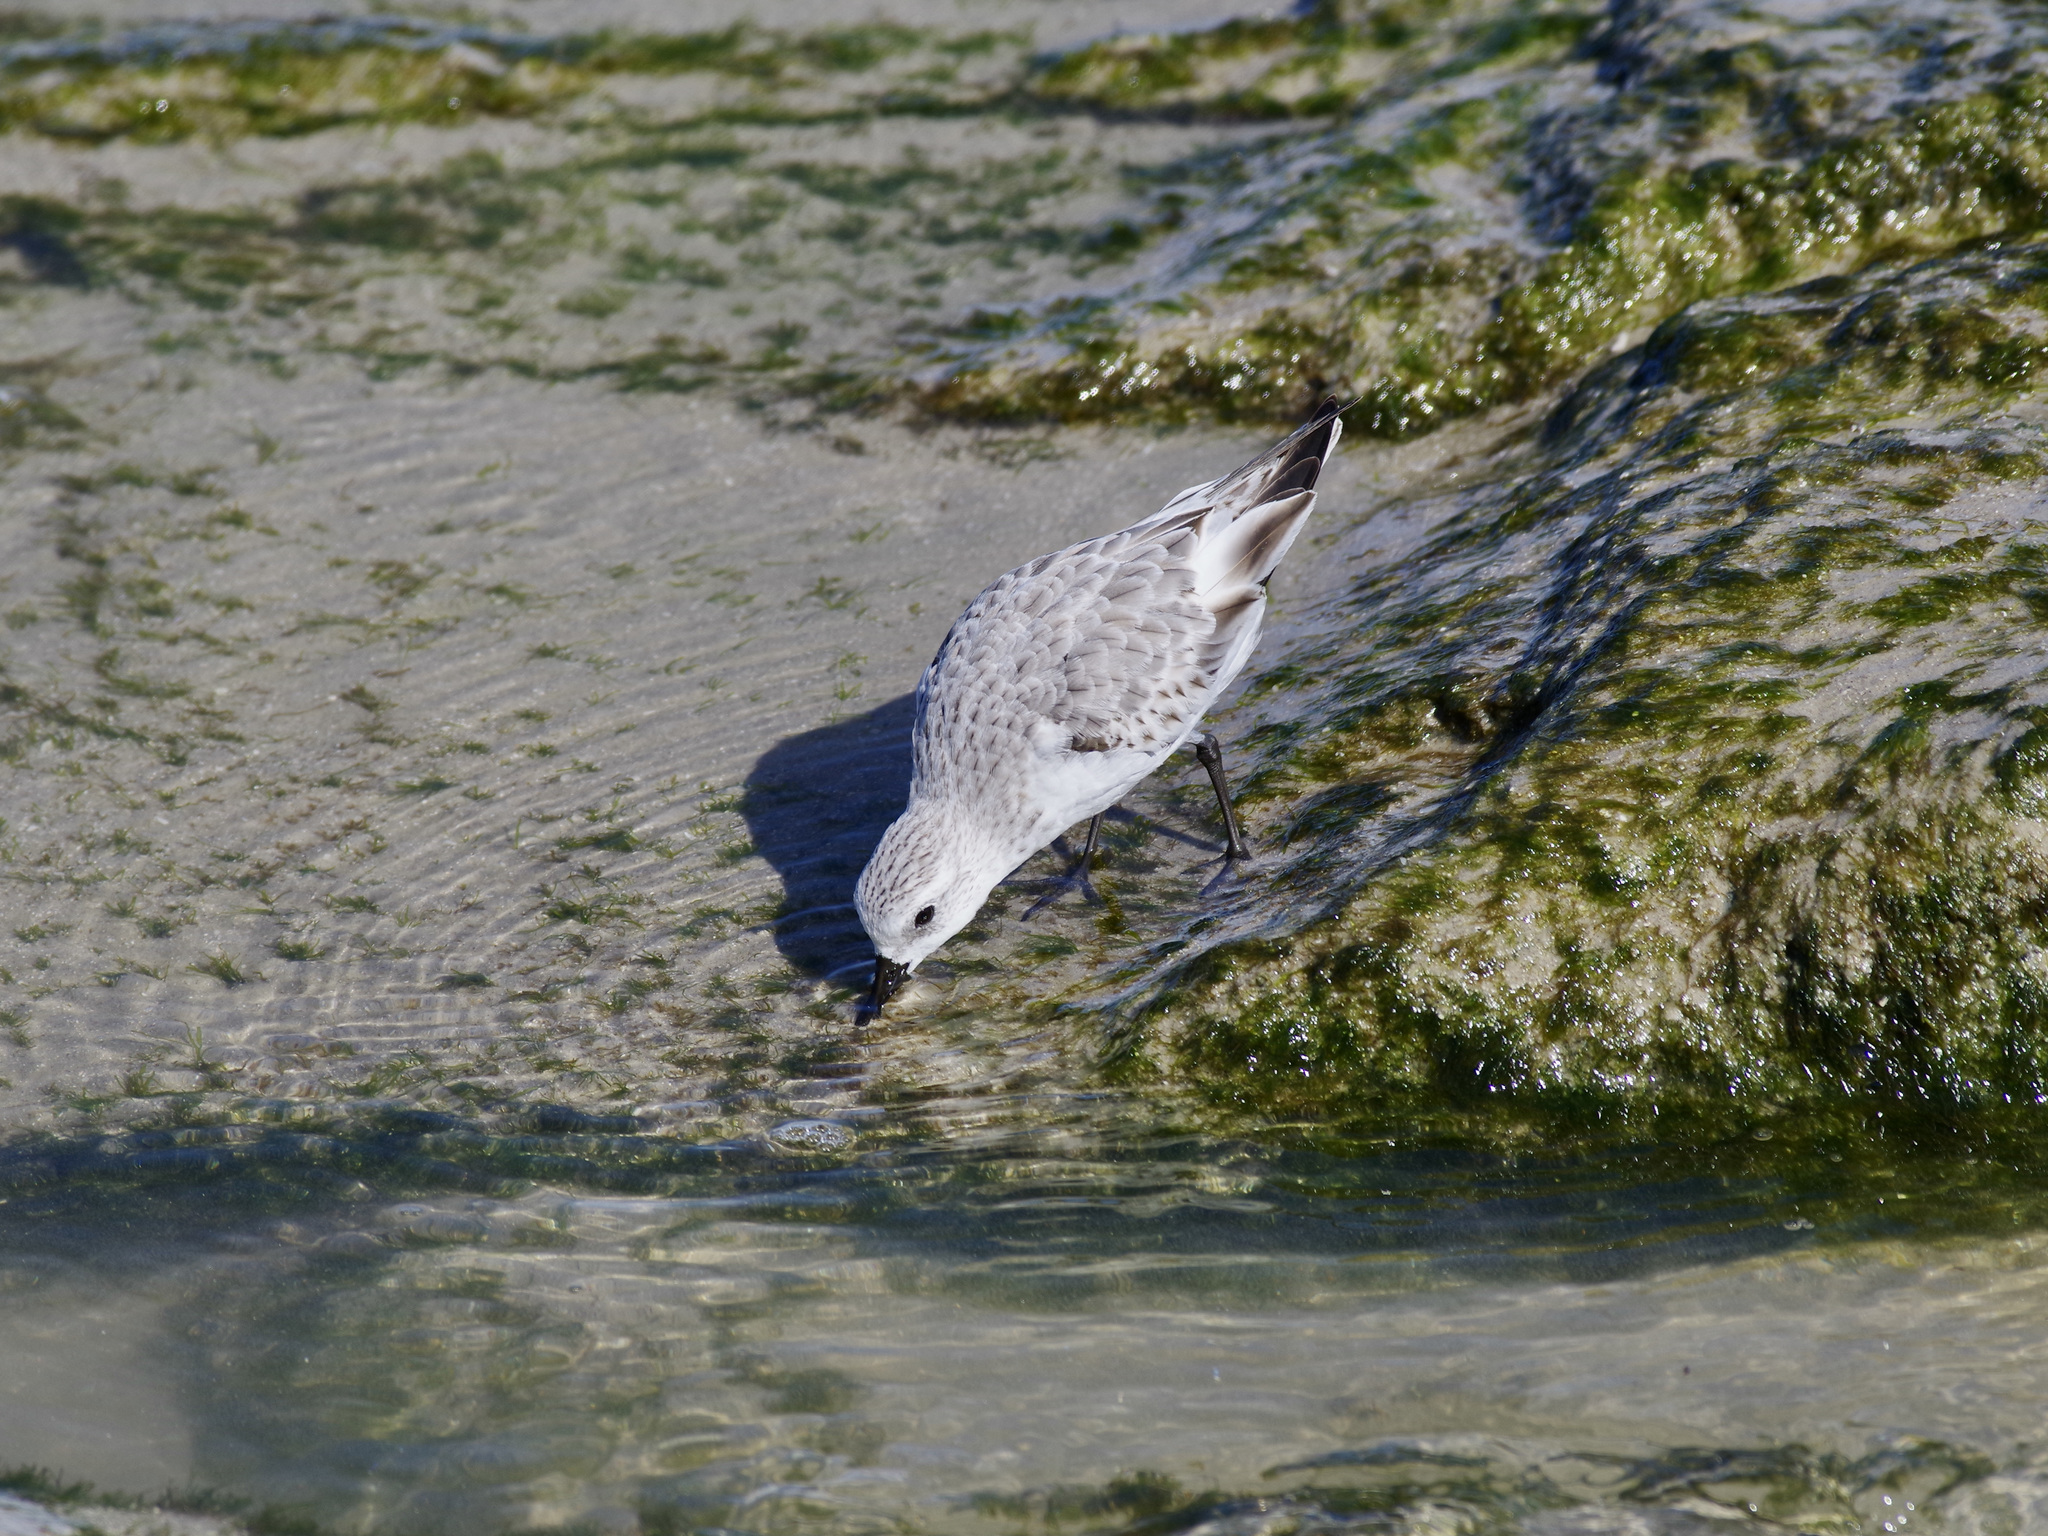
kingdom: Animalia
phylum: Chordata
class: Aves
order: Charadriiformes
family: Scolopacidae
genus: Calidris
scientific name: Calidris alba
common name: Sanderling
